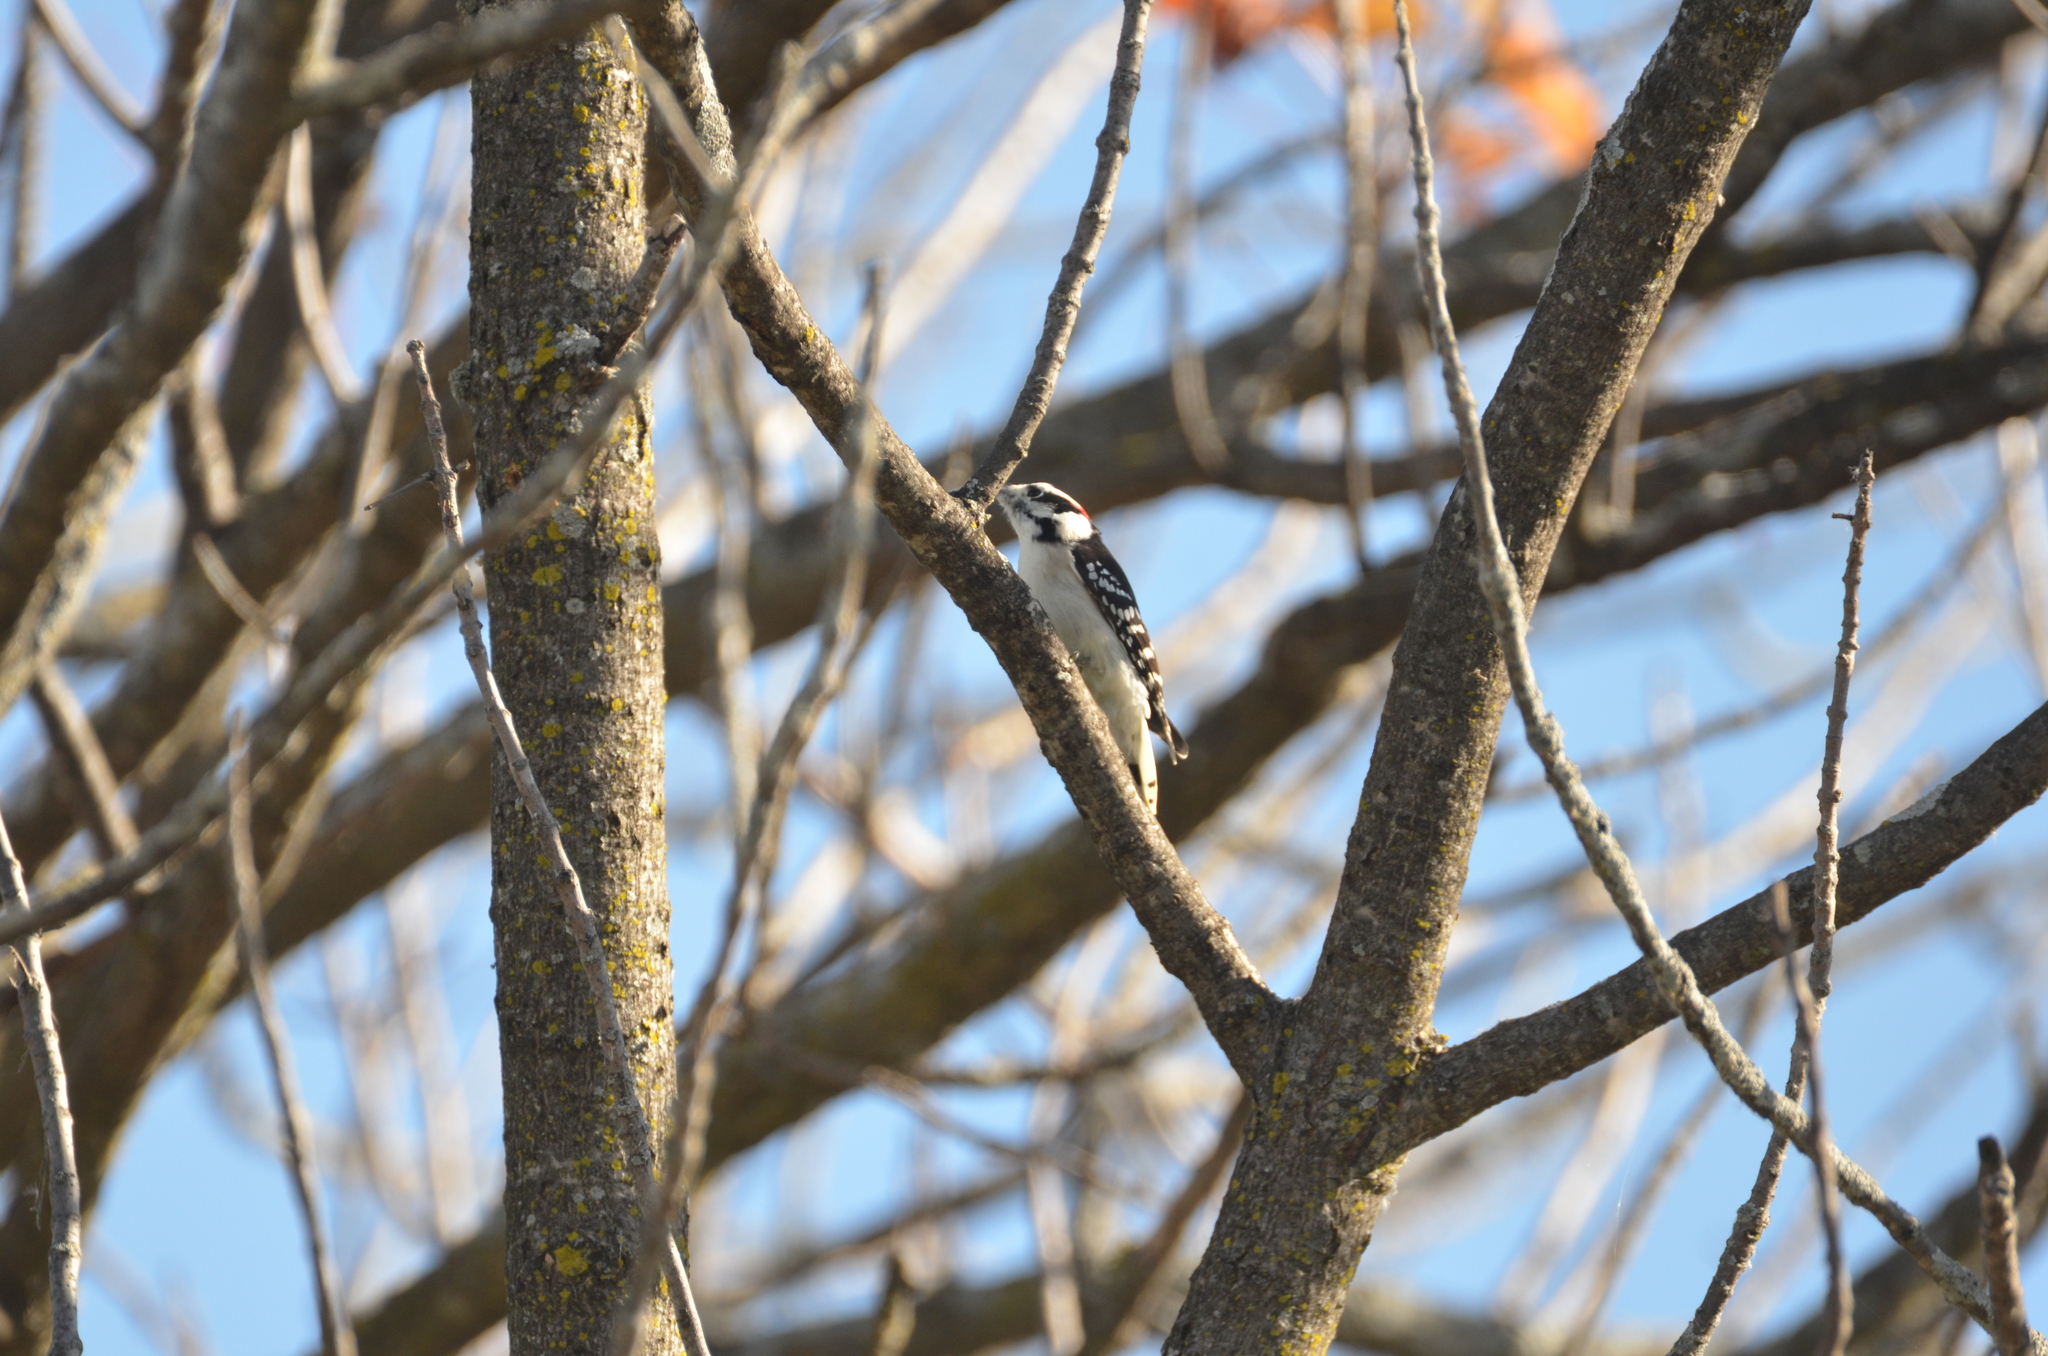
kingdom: Animalia
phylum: Chordata
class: Aves
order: Piciformes
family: Picidae
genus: Dryobates
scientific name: Dryobates pubescens
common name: Downy woodpecker
